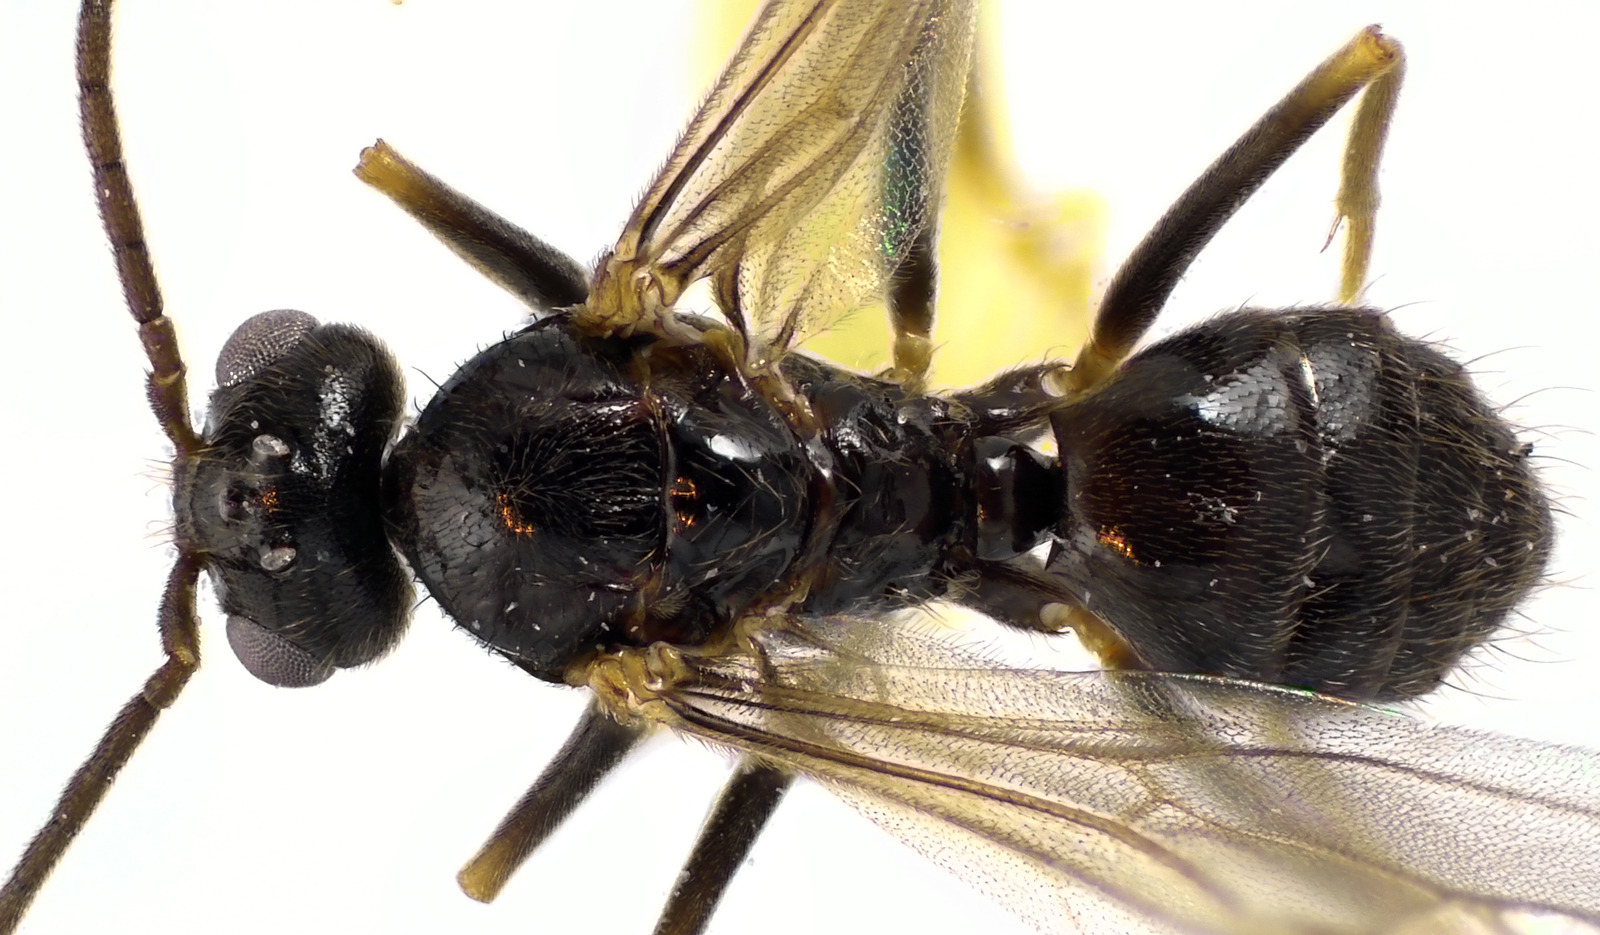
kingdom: Animalia
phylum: Arthropoda
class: Insecta
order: Hymenoptera
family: Formicidae
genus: Prenolepis
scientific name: Prenolepis imparis
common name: Small honey ant
